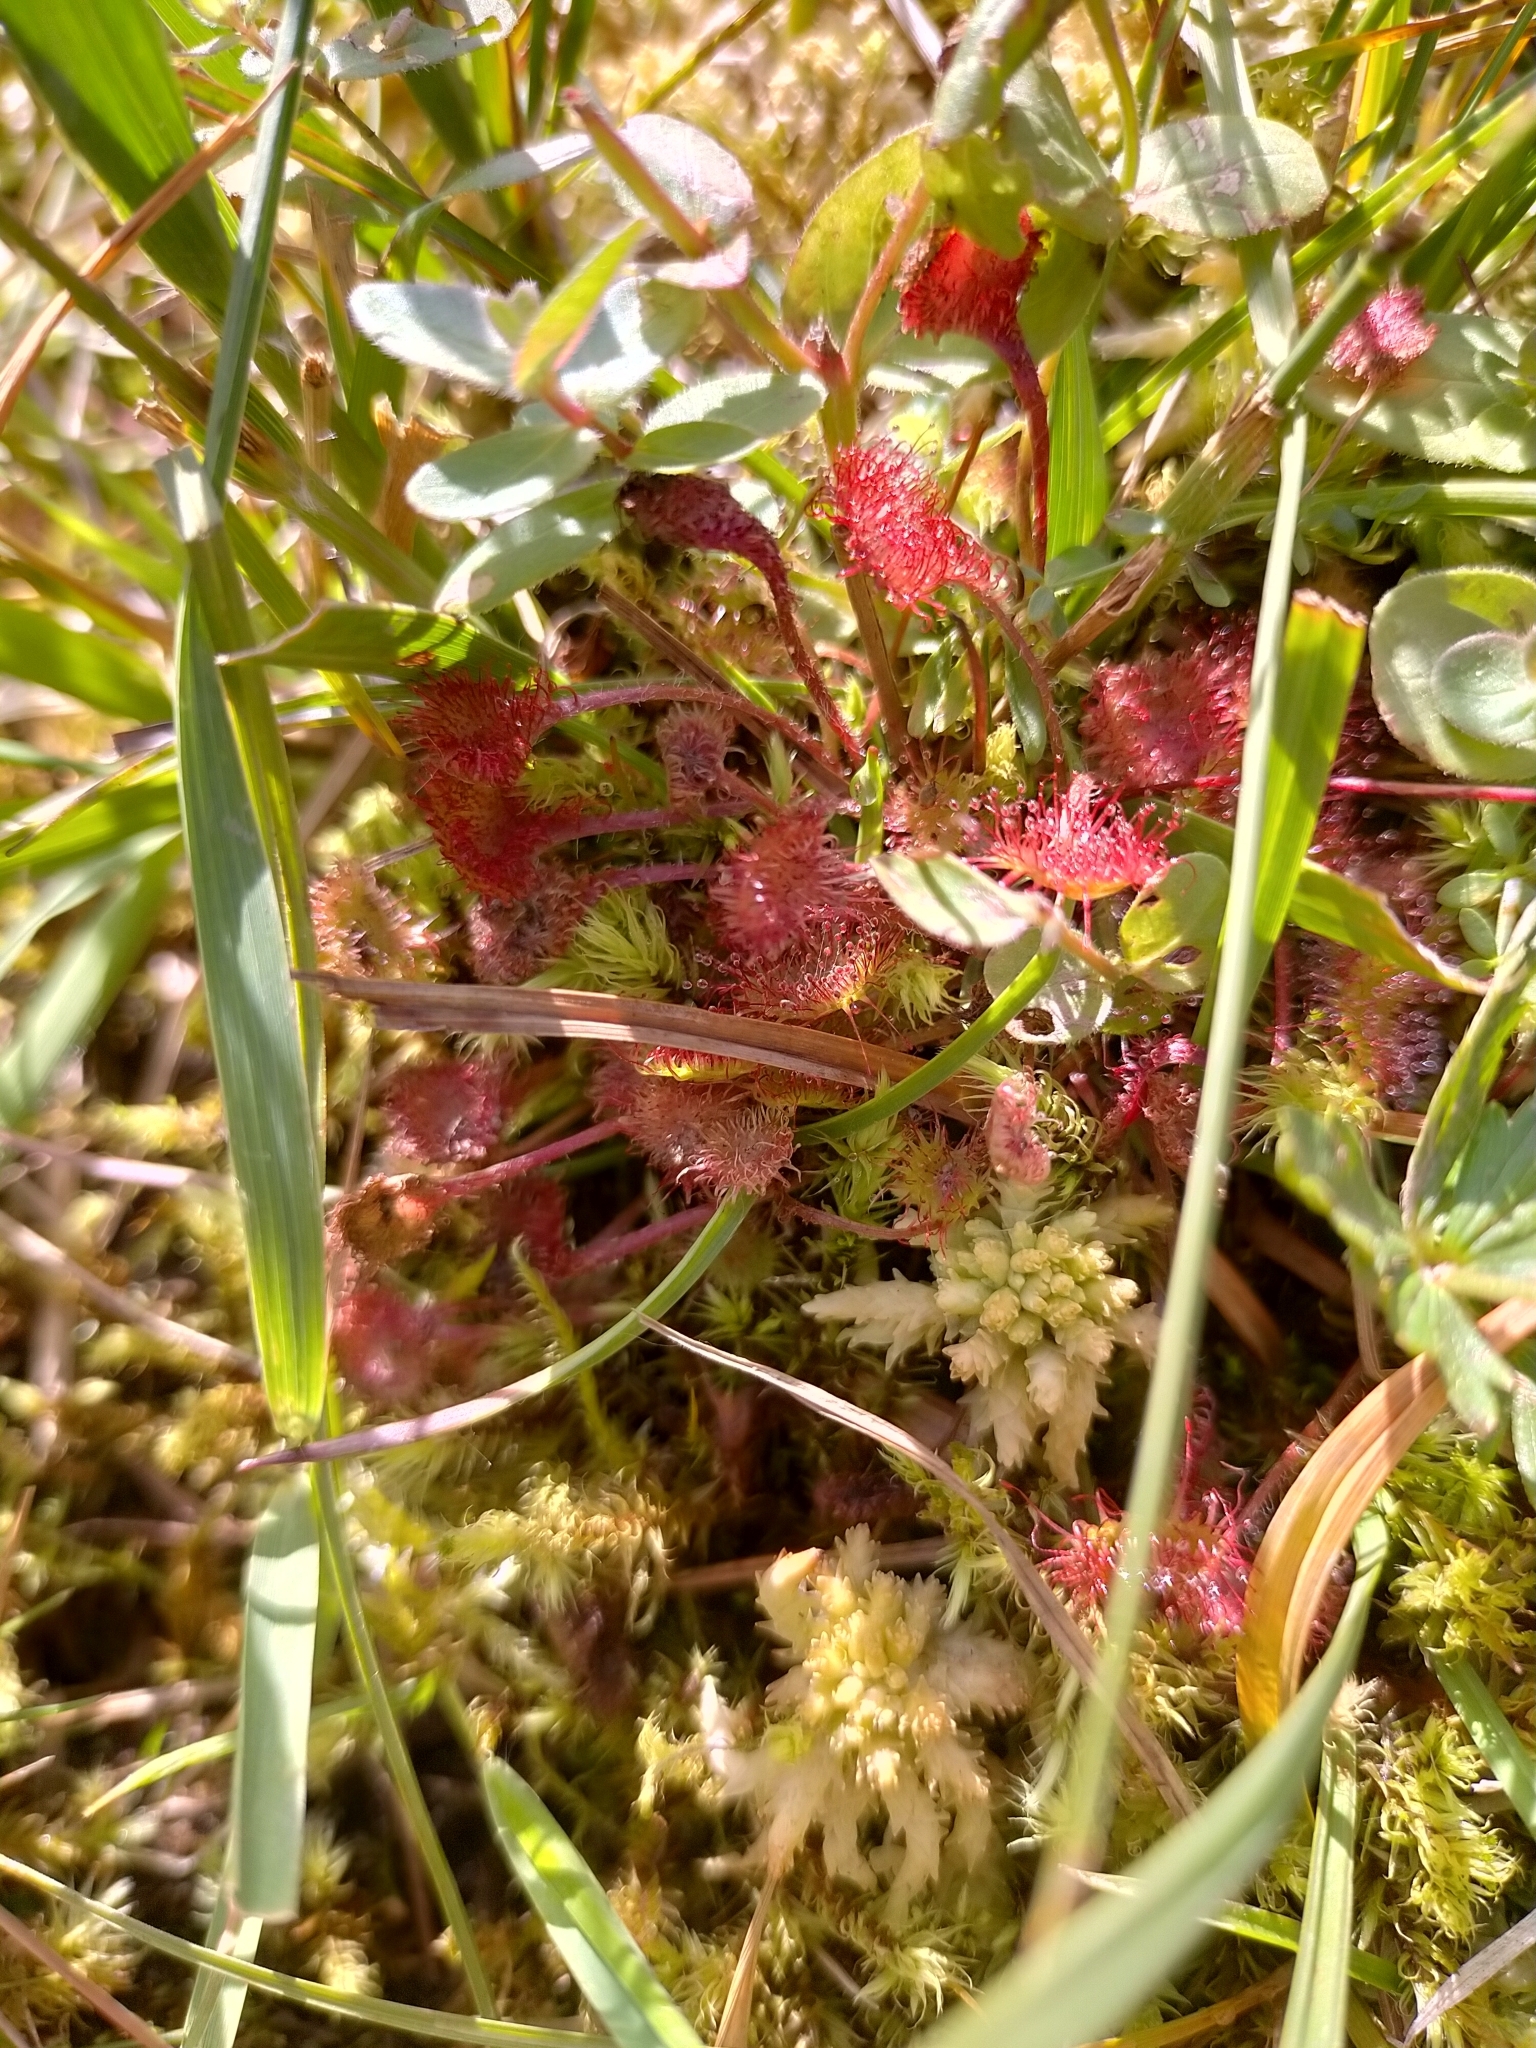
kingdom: Plantae
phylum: Tracheophyta
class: Magnoliopsida
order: Caryophyllales
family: Droseraceae
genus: Drosera
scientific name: Drosera rotundifolia
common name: Round-leaved sundew
